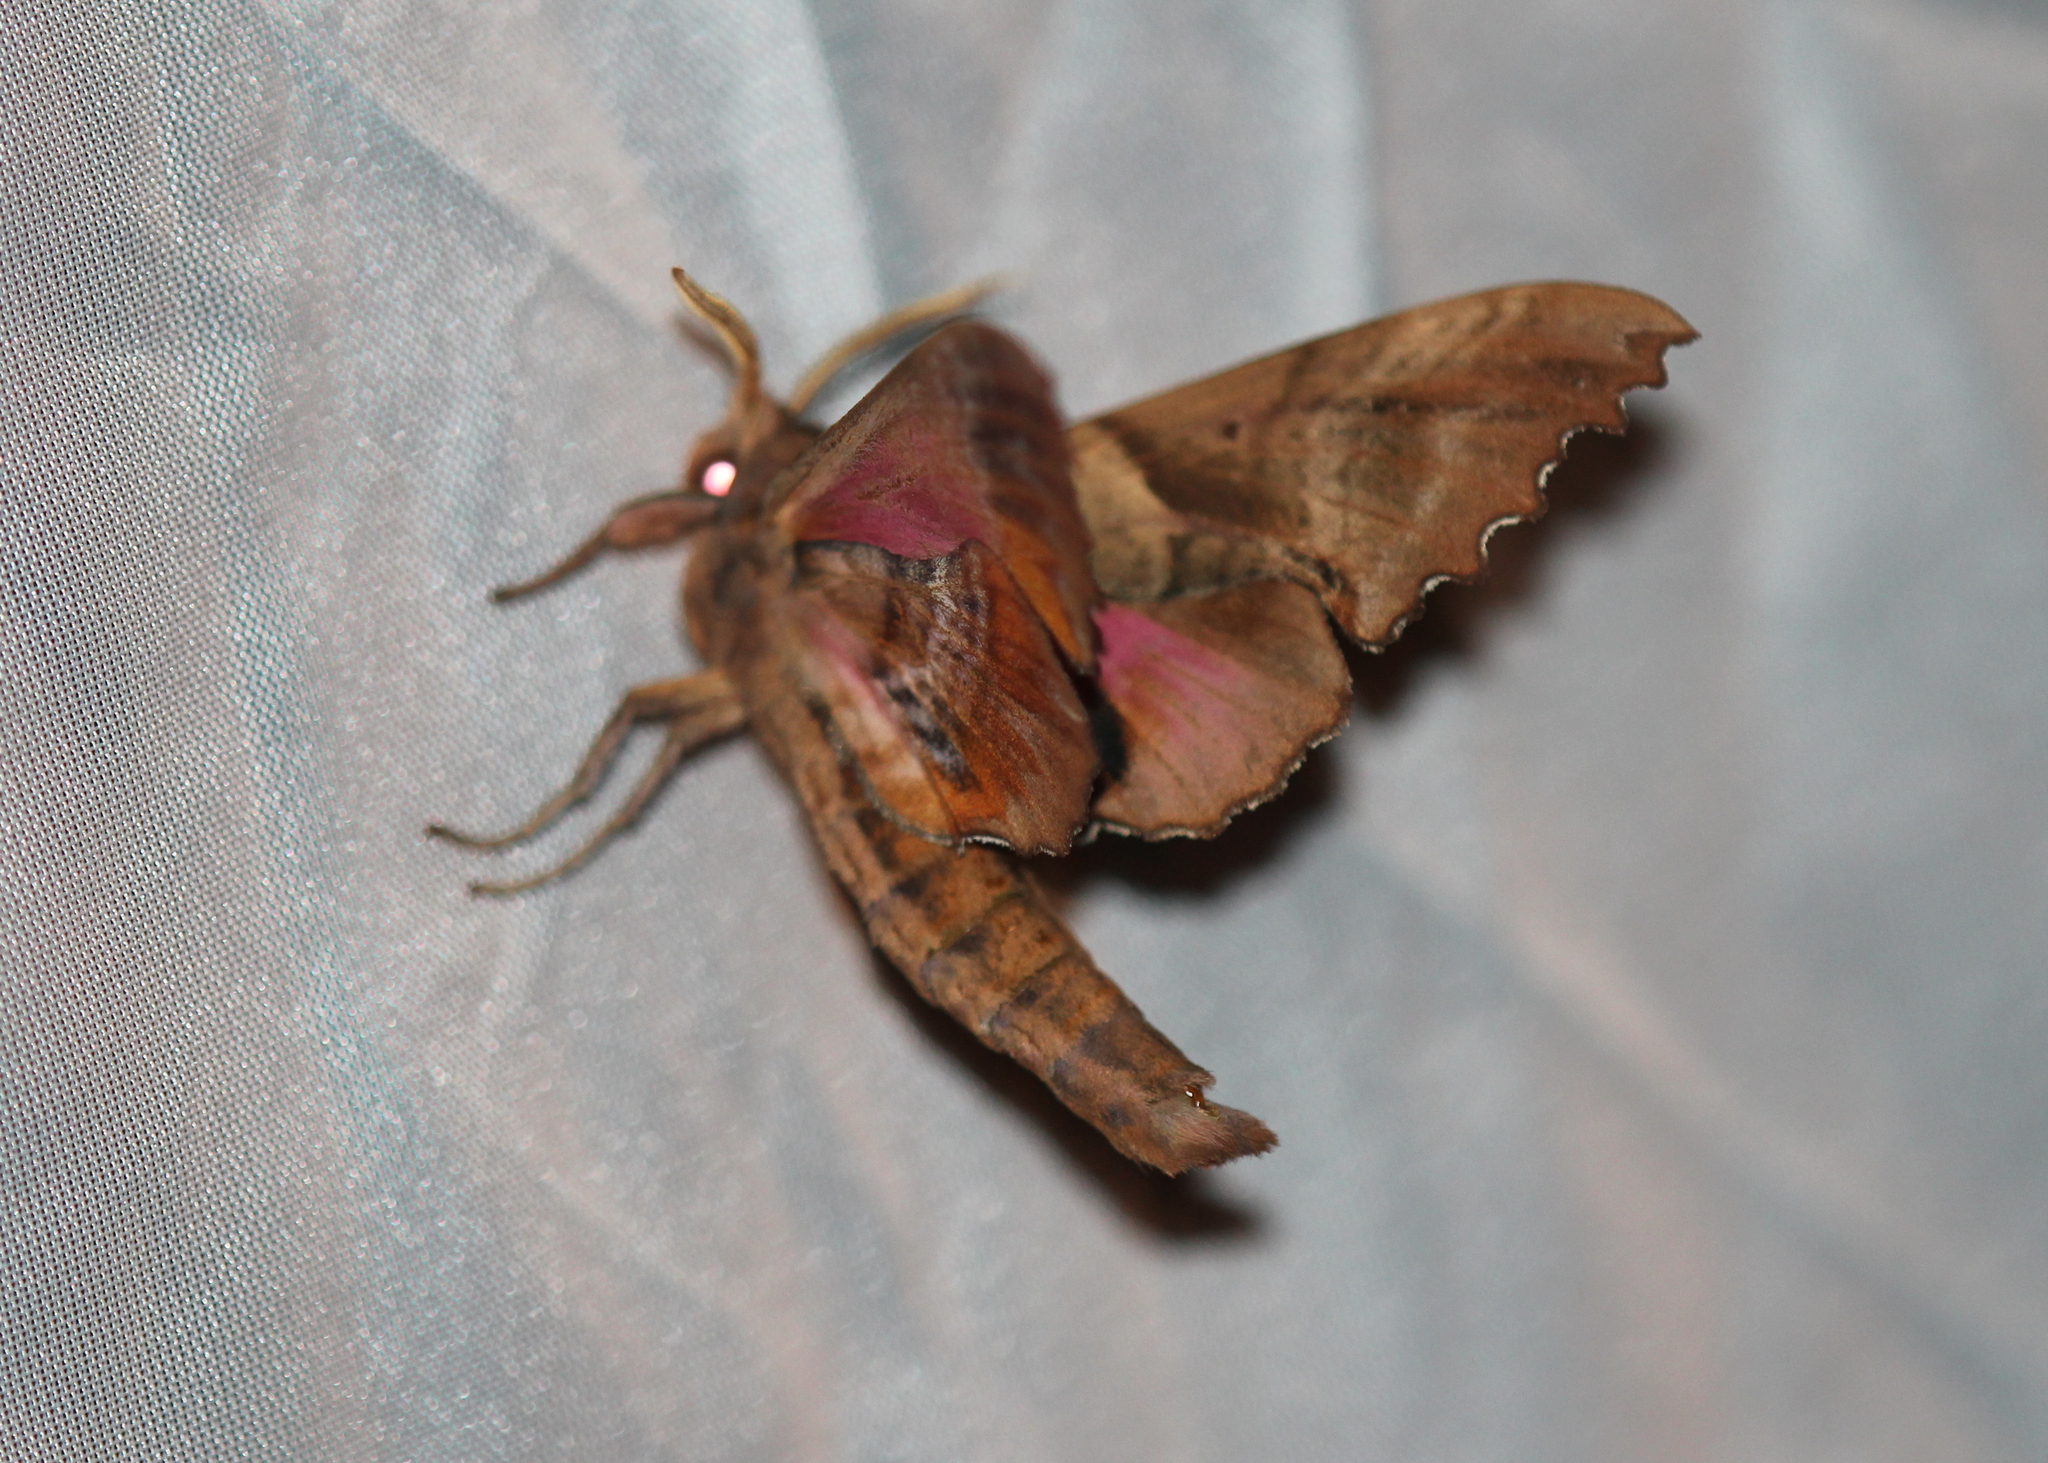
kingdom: Animalia
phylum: Arthropoda
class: Insecta
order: Lepidoptera
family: Sphingidae
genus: Paonias
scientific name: Paonias excaecata
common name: Blind-eyed sphinx
